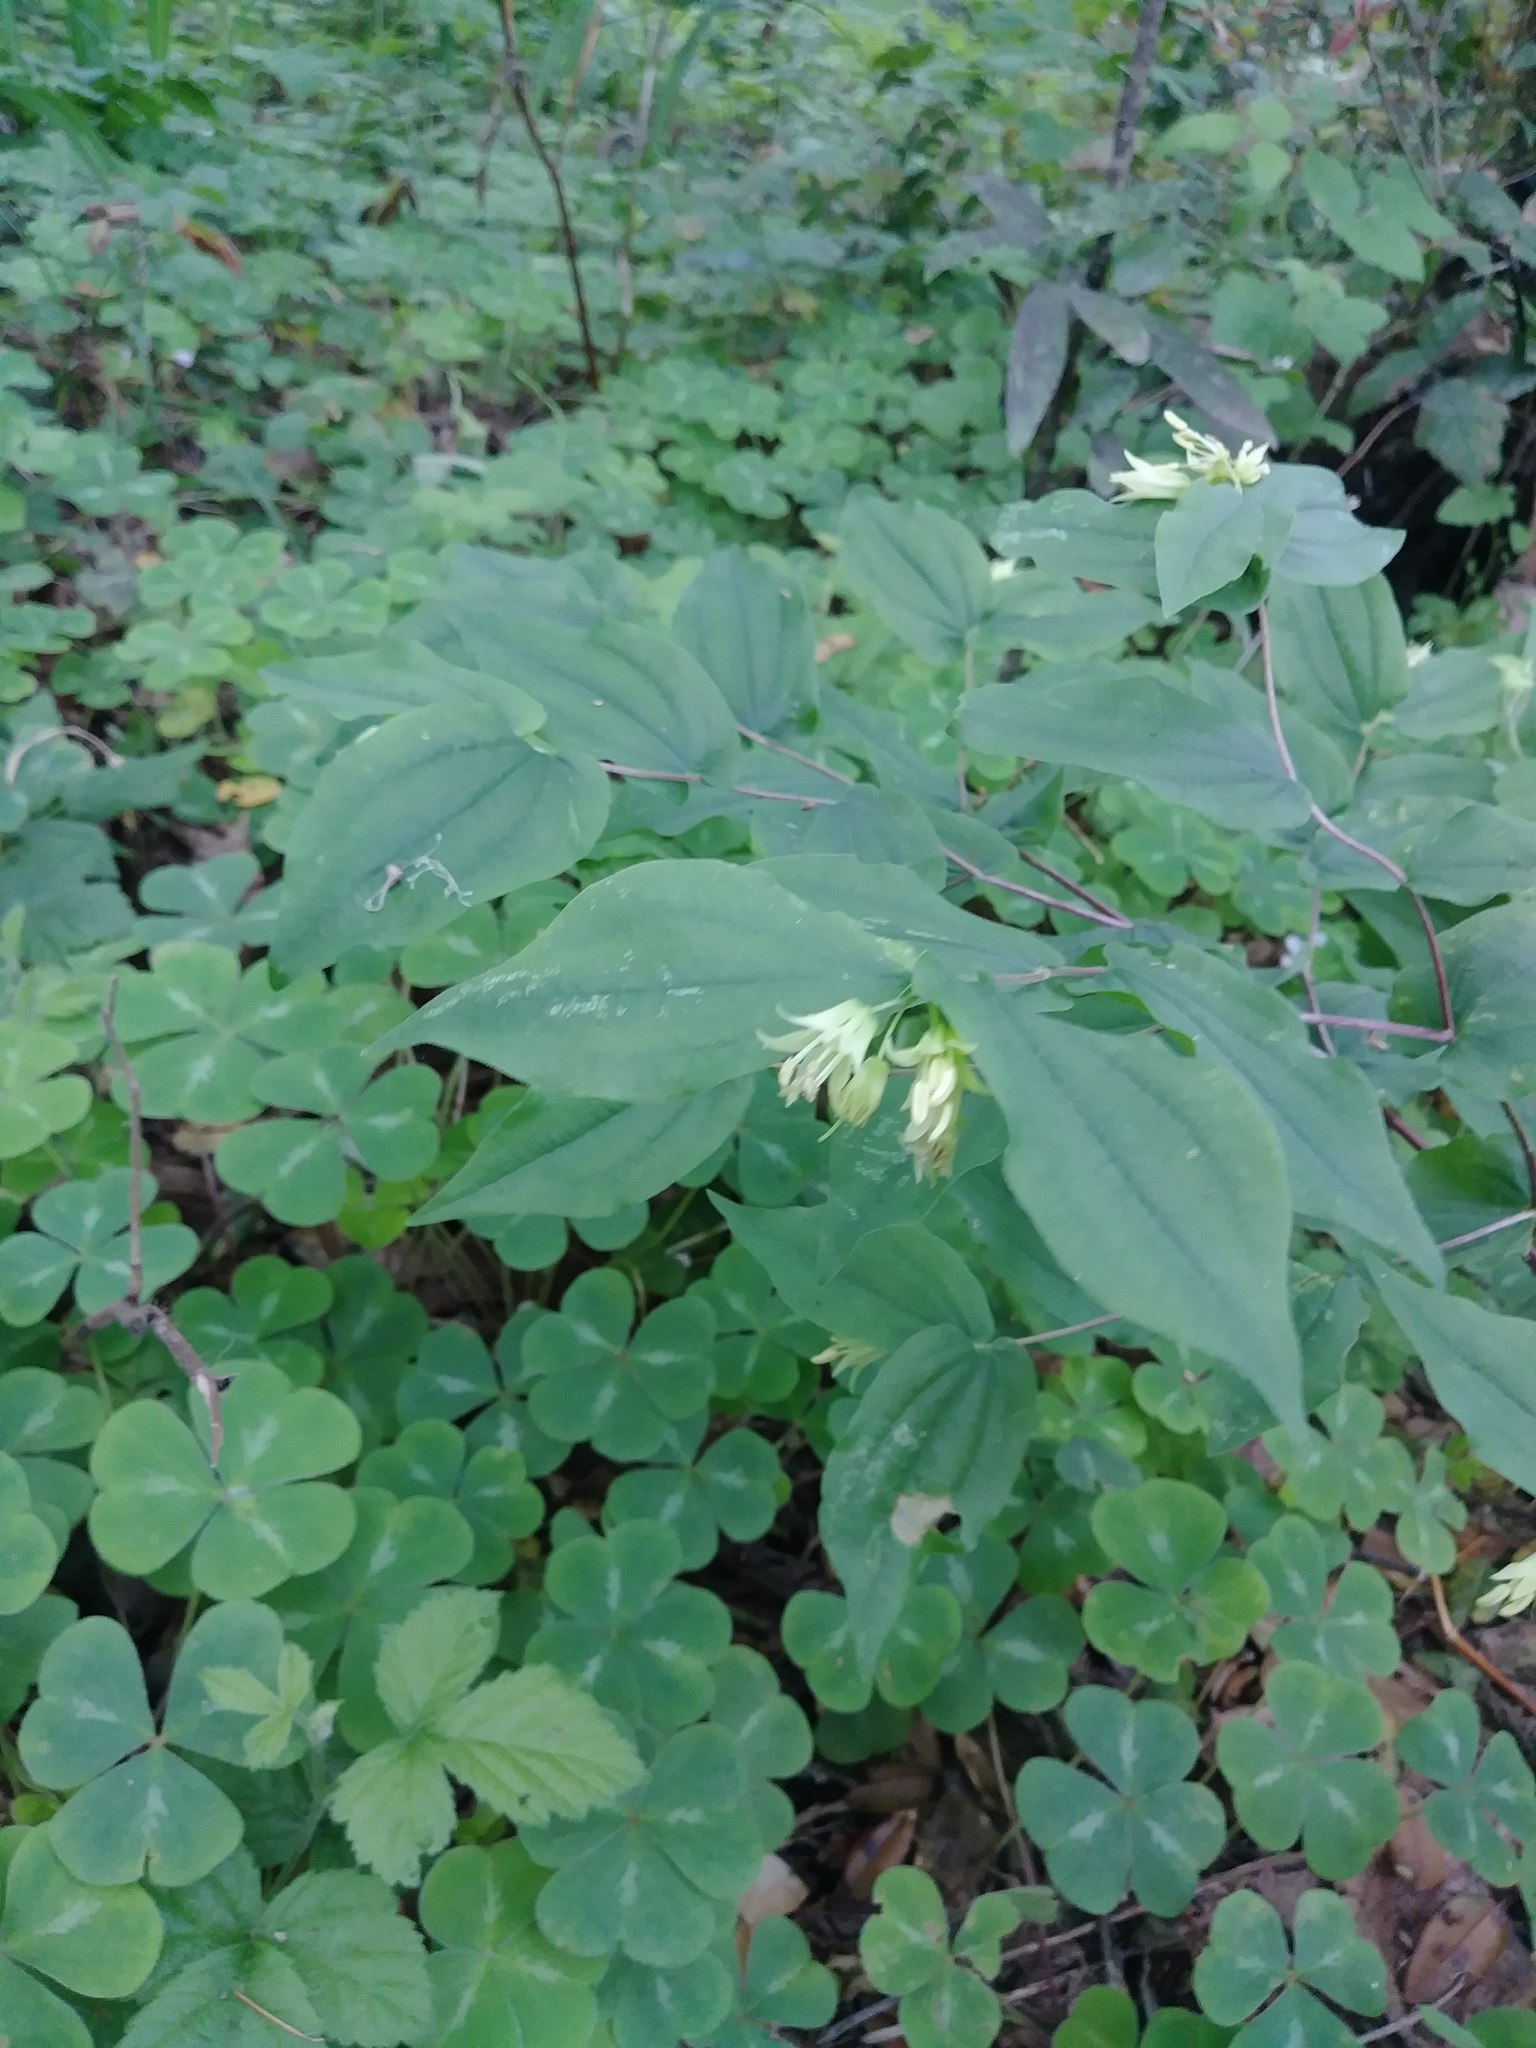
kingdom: Plantae
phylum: Tracheophyta
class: Liliopsida
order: Liliales
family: Liliaceae
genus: Prosartes
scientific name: Prosartes hookeri
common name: Fairy-bells
